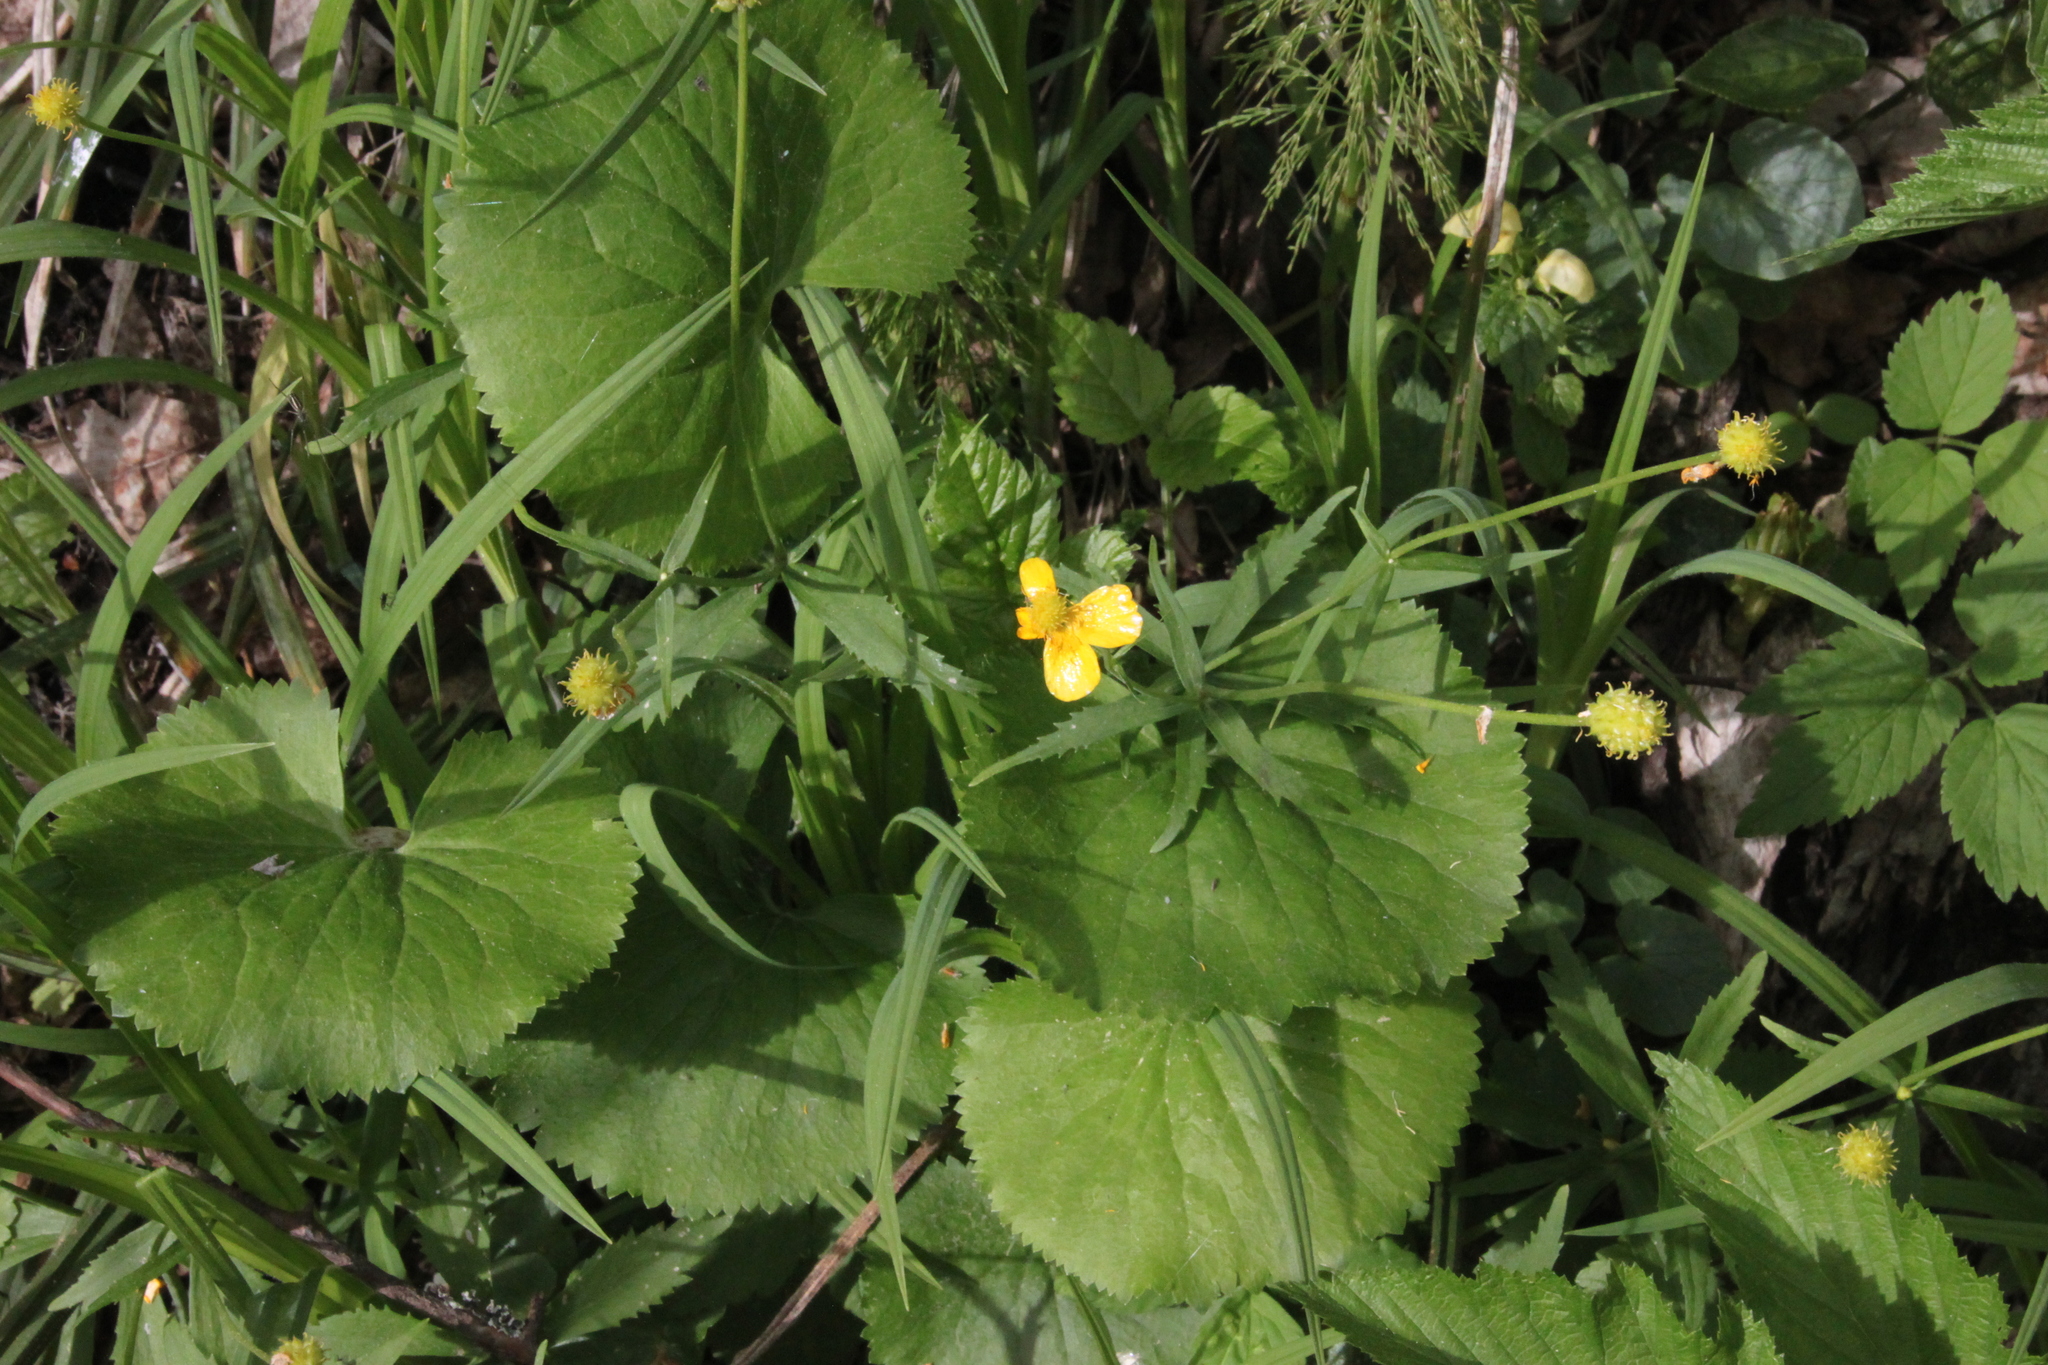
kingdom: Plantae
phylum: Tracheophyta
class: Magnoliopsida
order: Ranunculales
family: Ranunculaceae
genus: Ranunculus
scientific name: Ranunculus cassubicus
